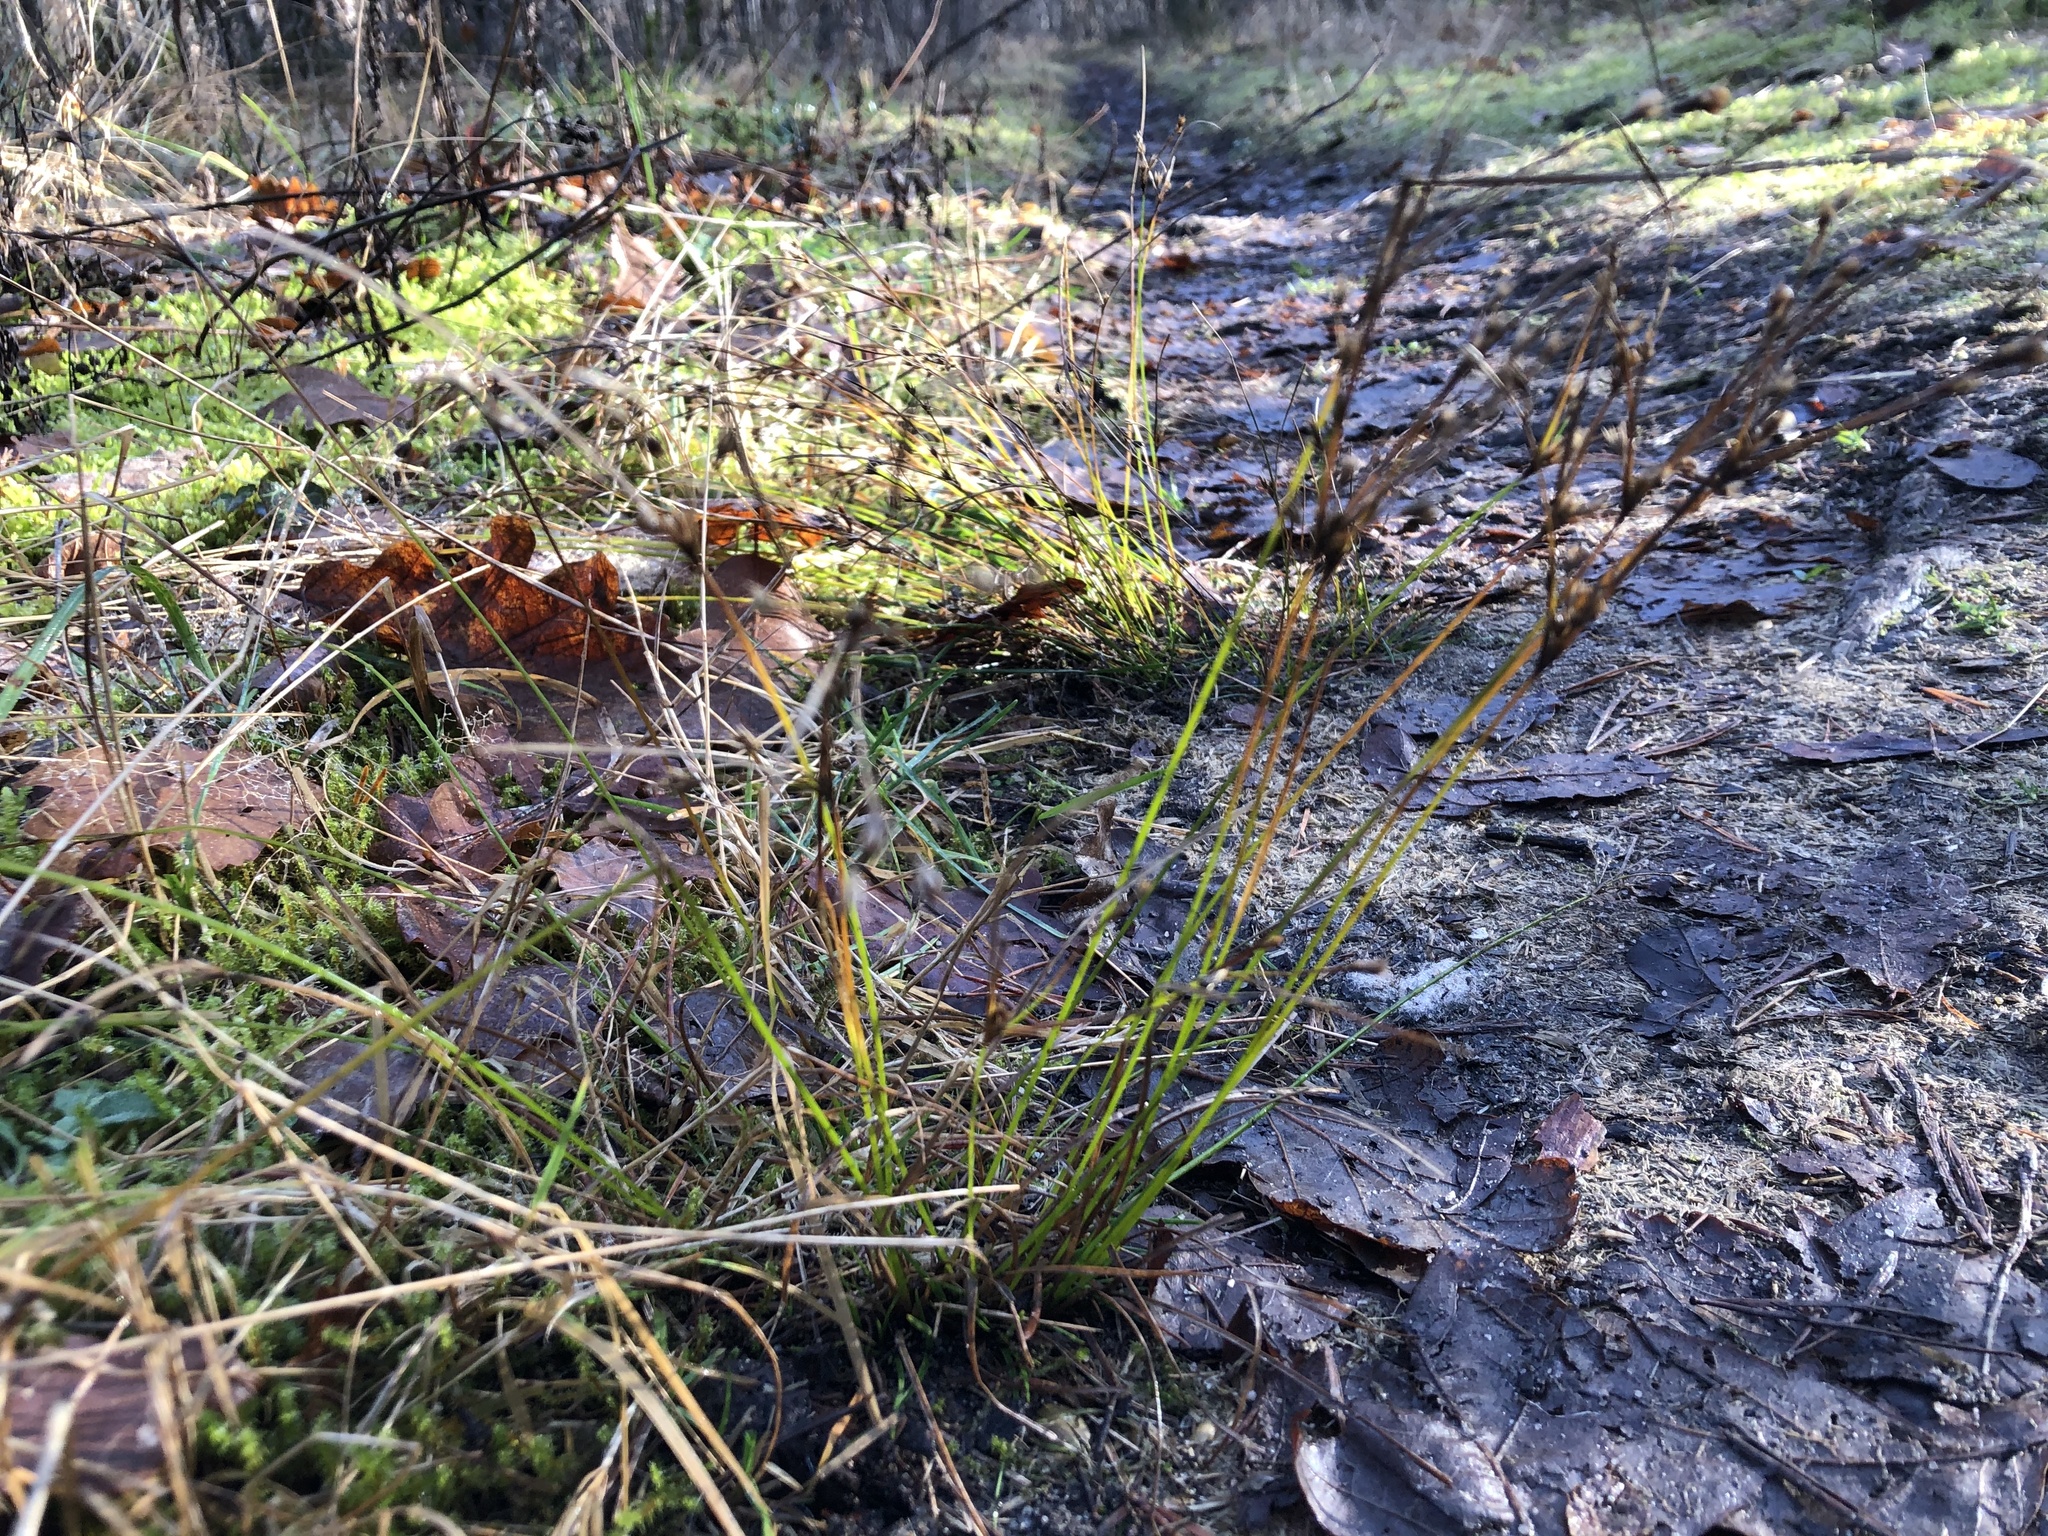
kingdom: Plantae
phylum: Tracheophyta
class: Liliopsida
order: Poales
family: Juncaceae
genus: Juncus
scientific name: Juncus tenuis
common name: Slender rush
